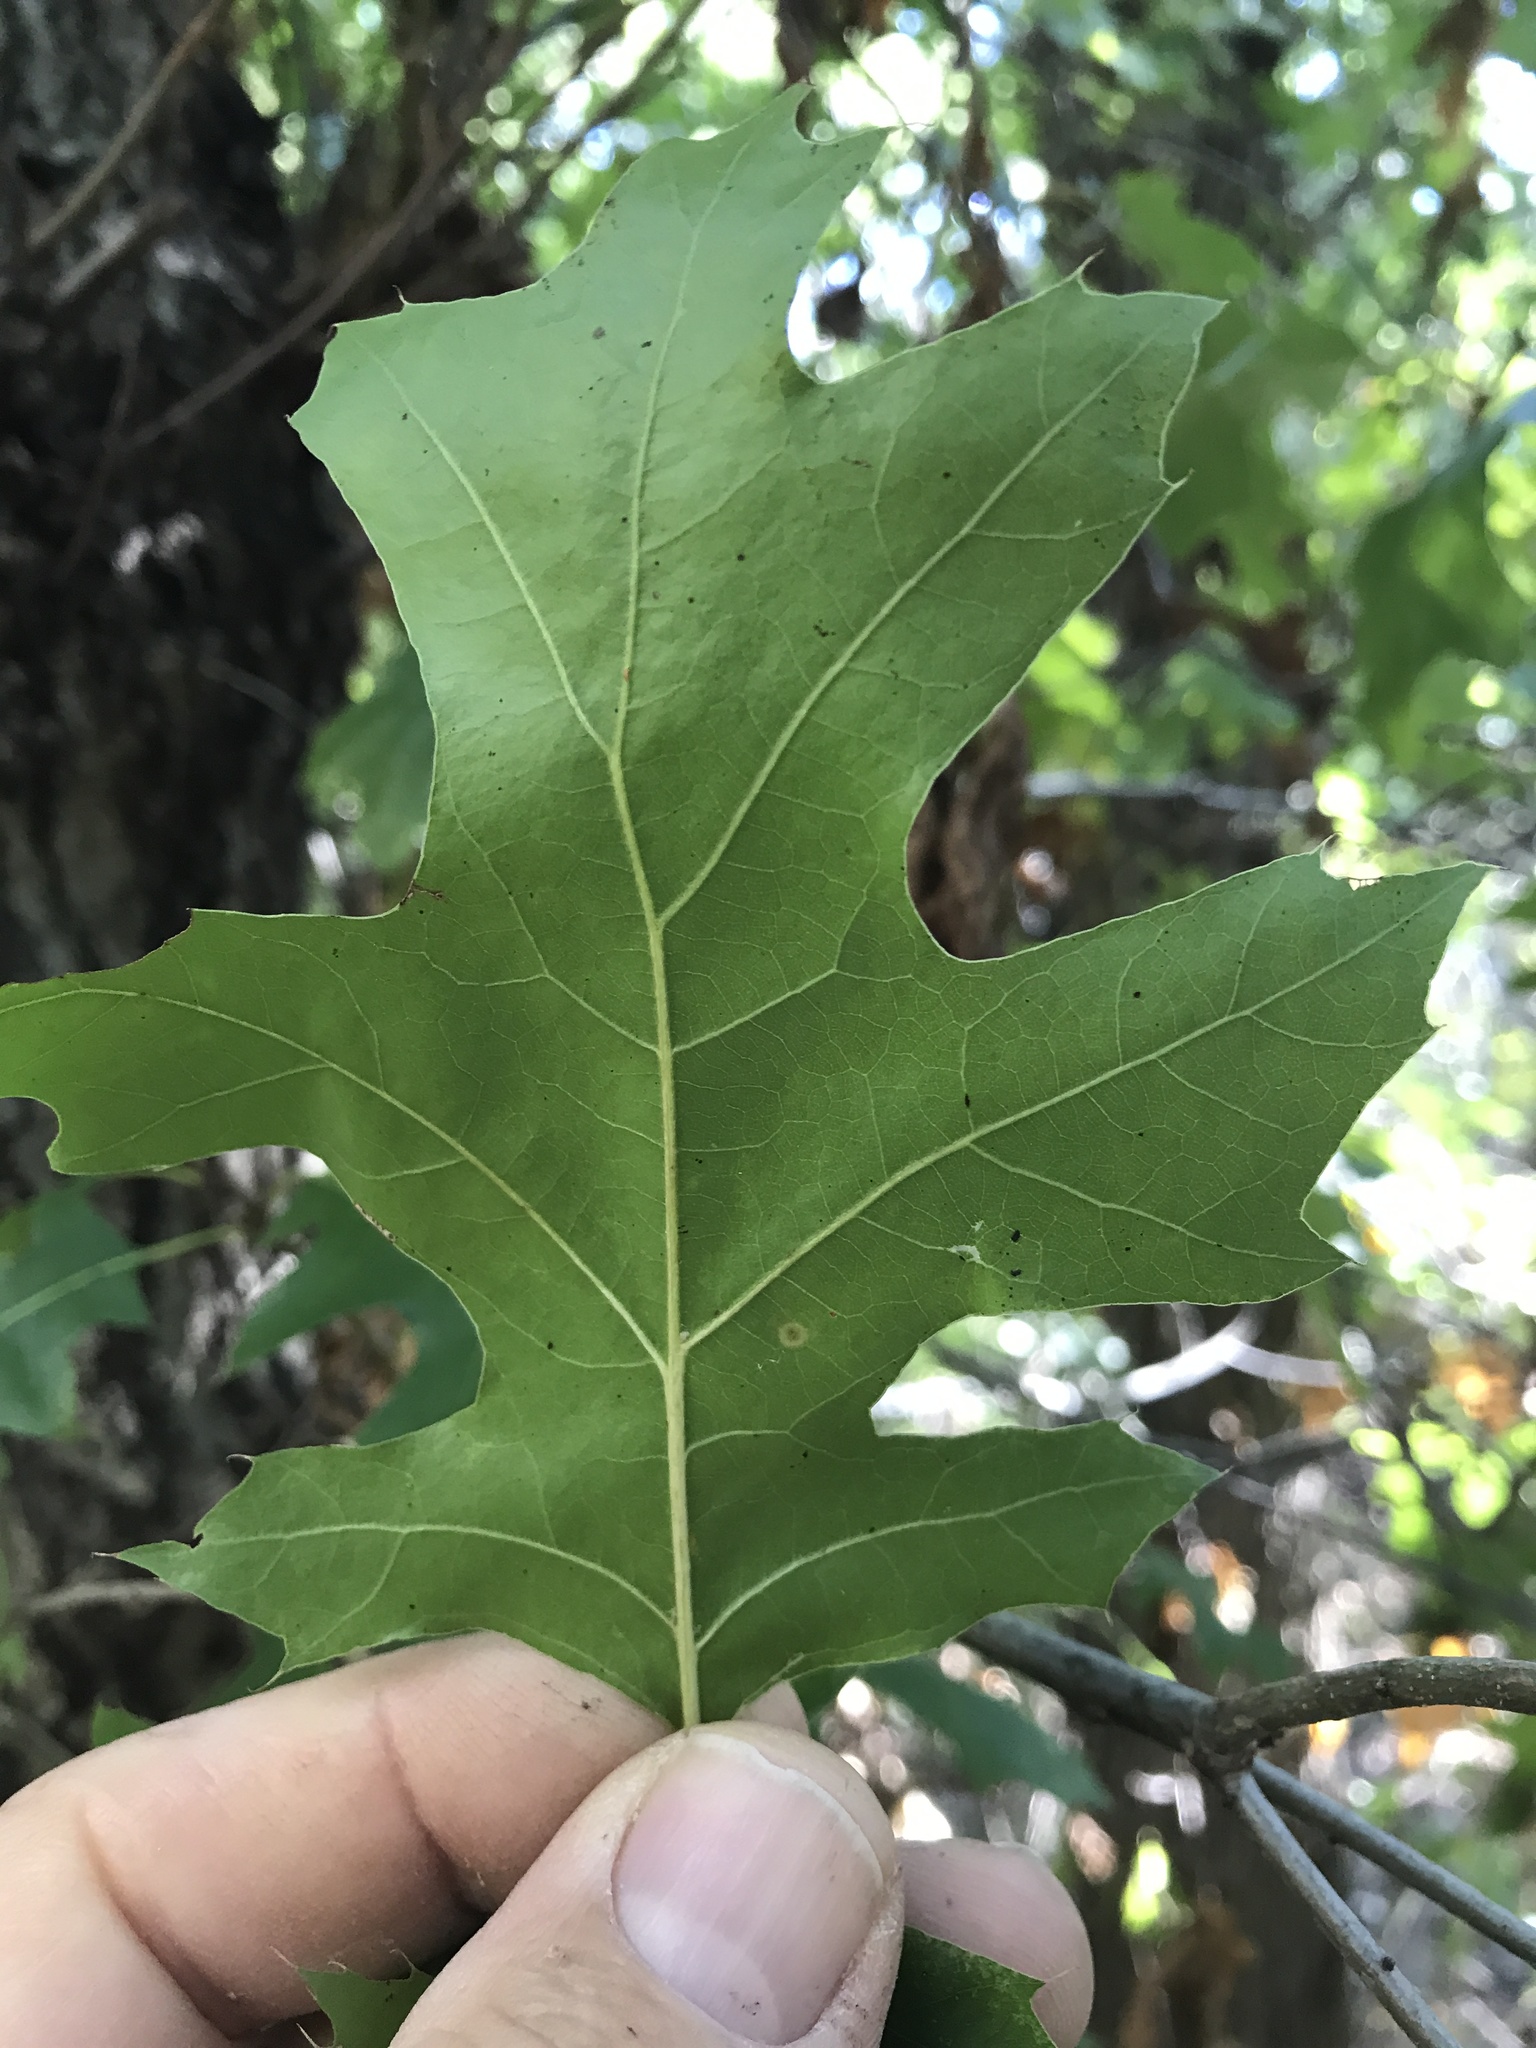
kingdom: Plantae
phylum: Tracheophyta
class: Magnoliopsida
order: Fagales
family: Fagaceae
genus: Quercus
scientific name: Quercus buckleyi
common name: Buckley oak
